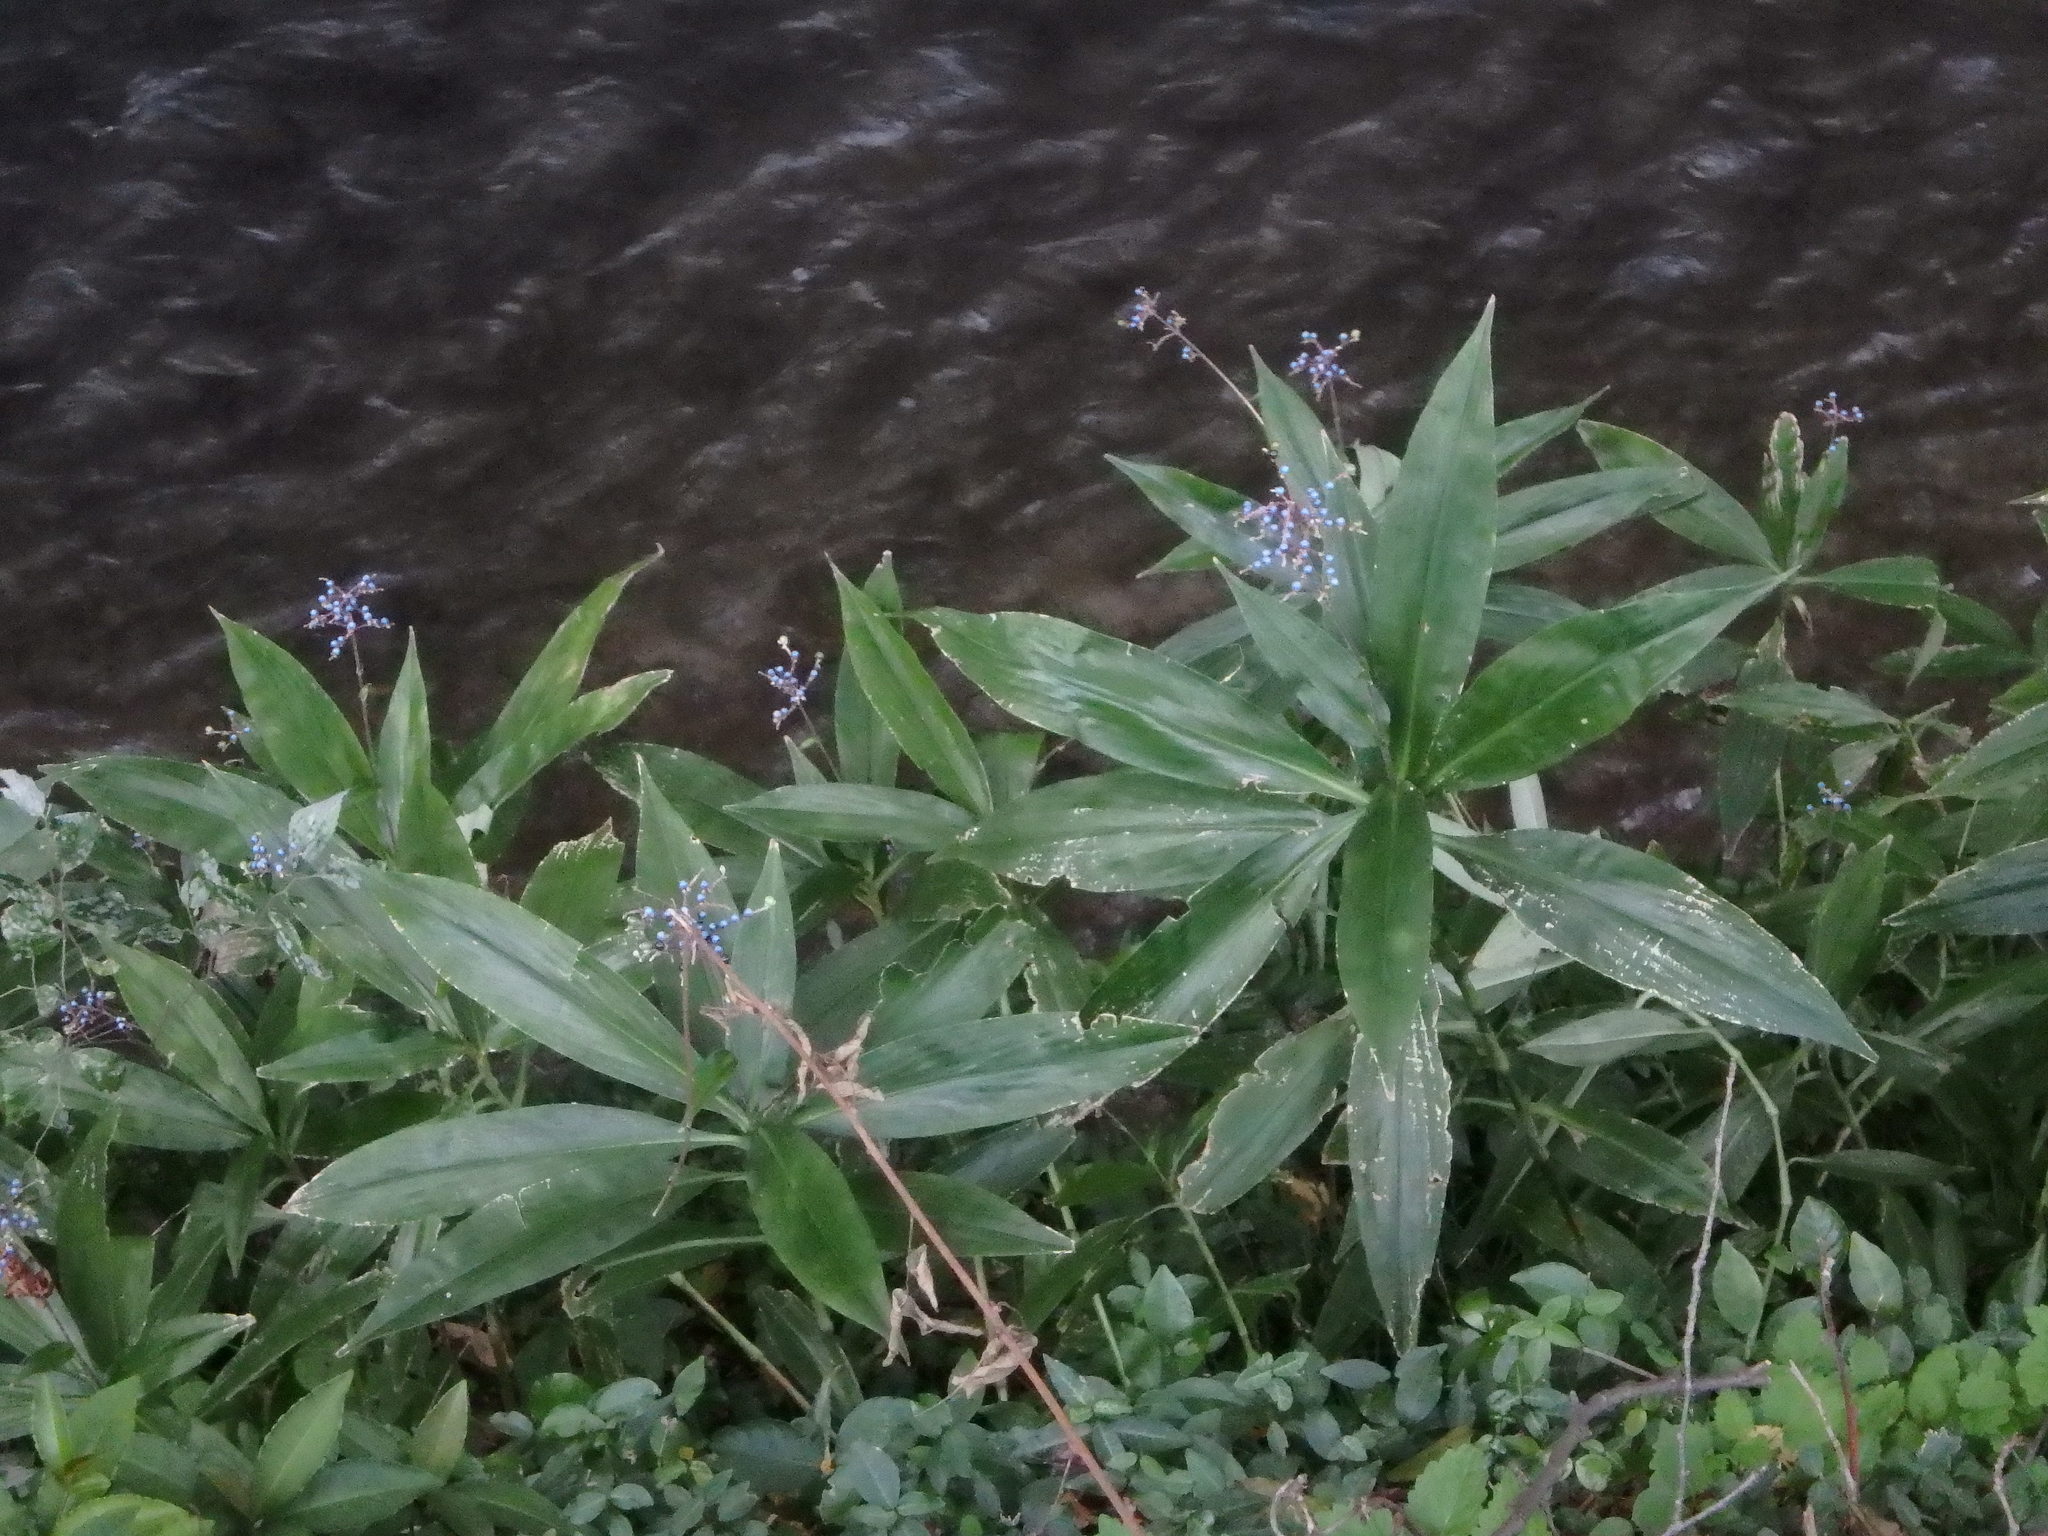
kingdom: Plantae
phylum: Tracheophyta
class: Liliopsida
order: Commelinales
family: Commelinaceae
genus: Pollia
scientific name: Pollia japonica
